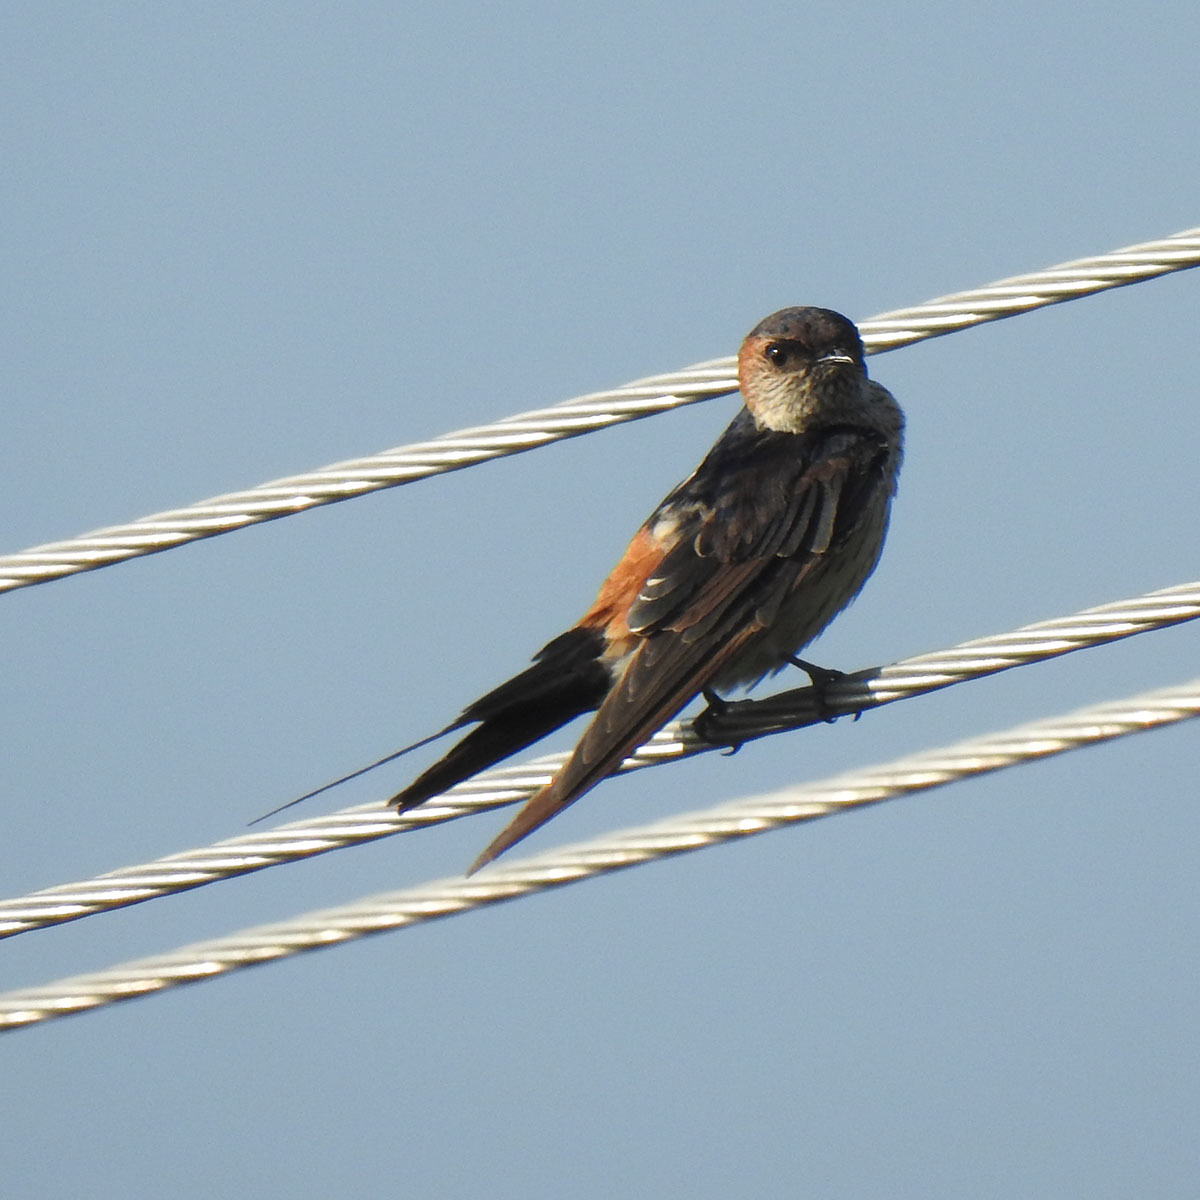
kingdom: Animalia
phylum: Chordata
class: Aves
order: Passeriformes
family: Hirundinidae
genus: Cecropis
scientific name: Cecropis daurica
